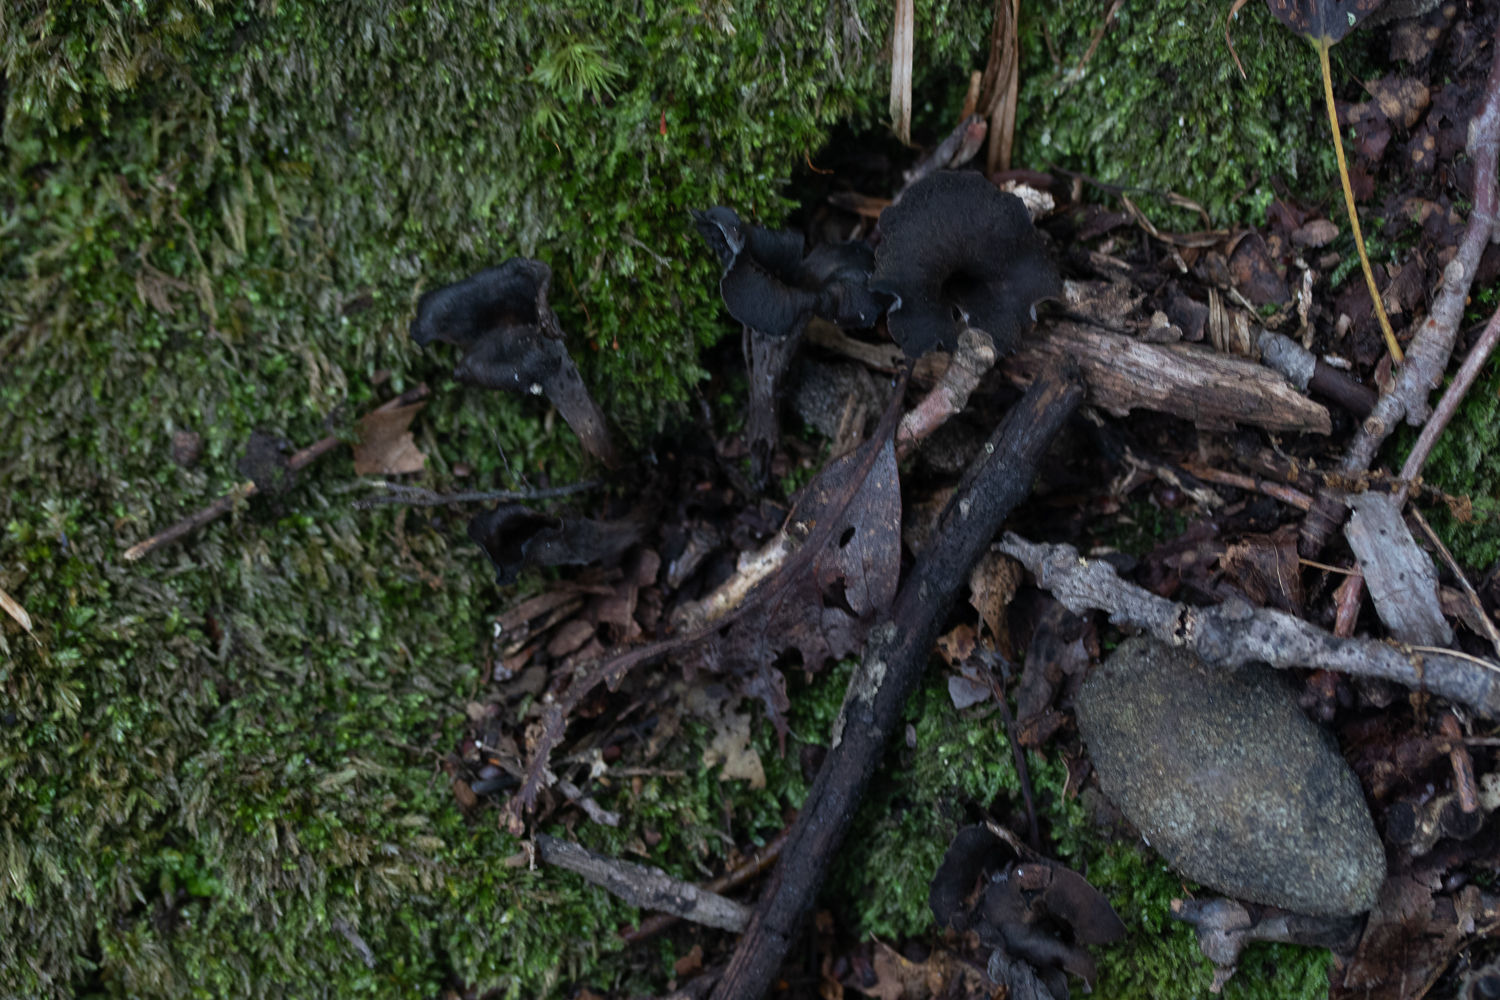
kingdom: Fungi
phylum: Basidiomycota
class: Agaricomycetes
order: Cantharellales
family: Hydnaceae
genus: Craterellus
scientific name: Craterellus cornucopioides
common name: Horn of plenty
